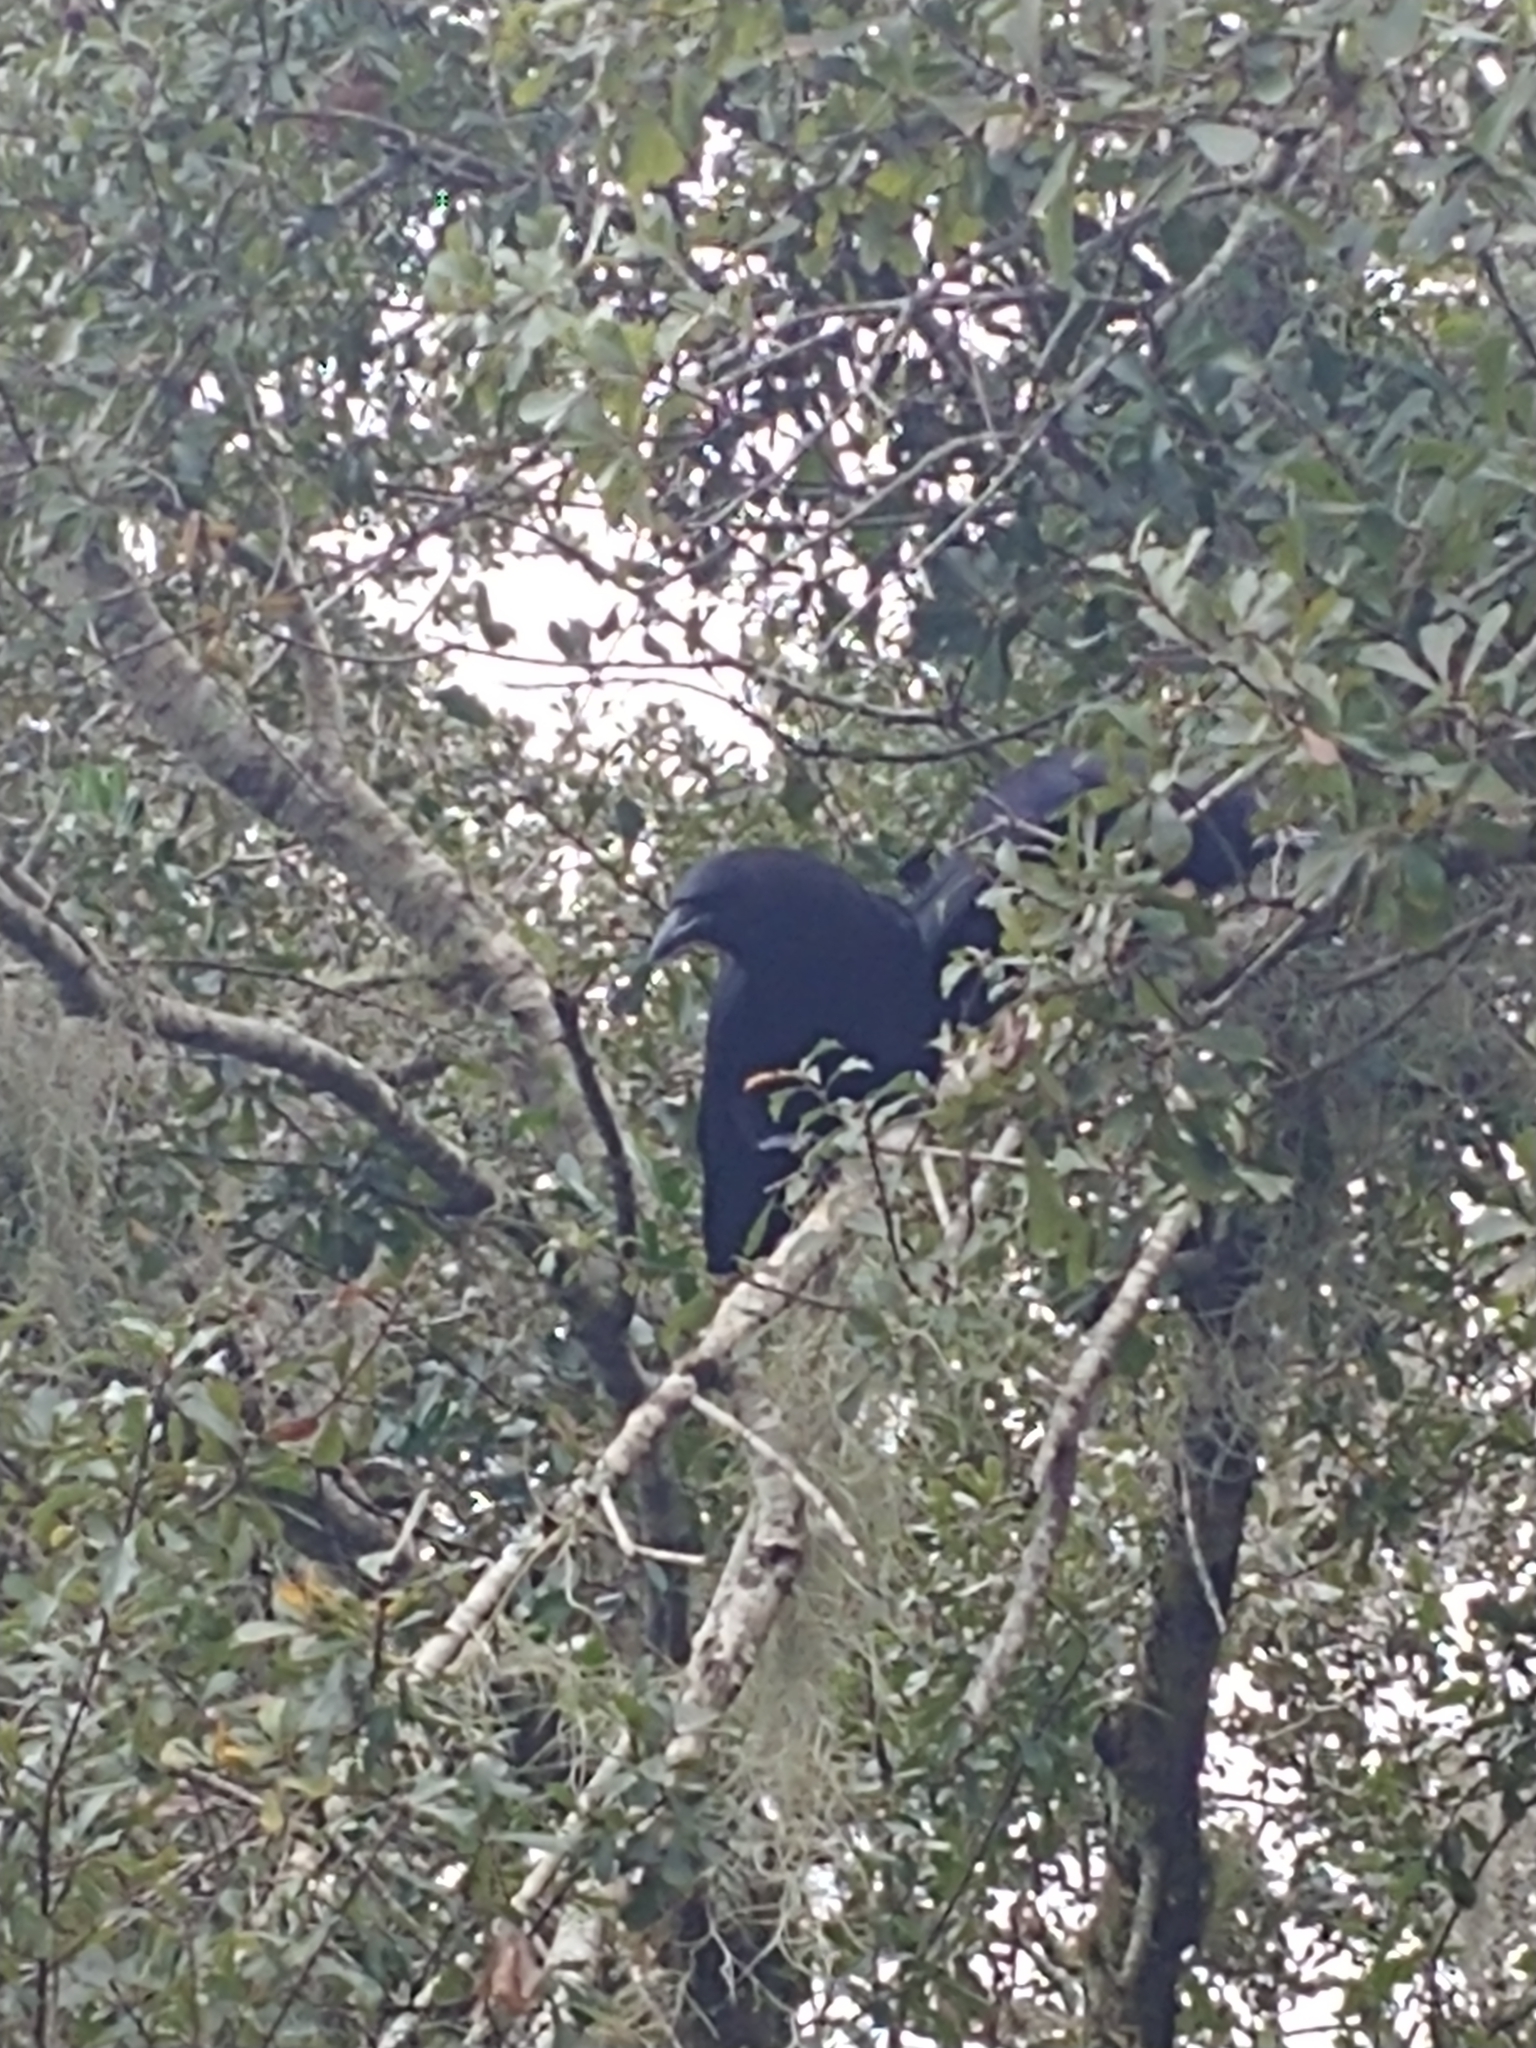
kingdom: Animalia
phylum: Chordata
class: Aves
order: Passeriformes
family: Corvidae
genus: Corvus
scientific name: Corvus brachyrhynchos
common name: American crow
